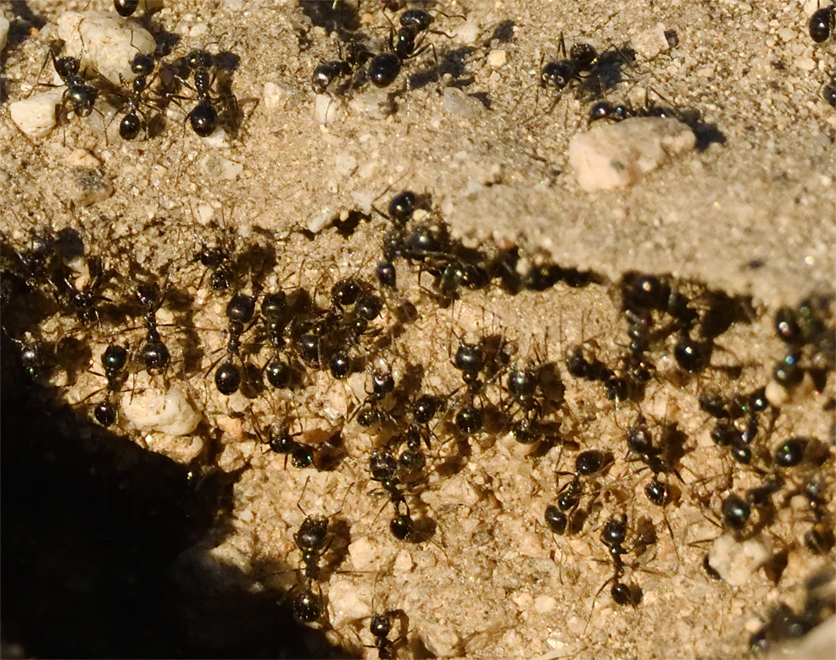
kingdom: Animalia
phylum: Arthropoda
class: Insecta
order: Hymenoptera
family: Formicidae
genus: Messor
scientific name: Messor pergandei
